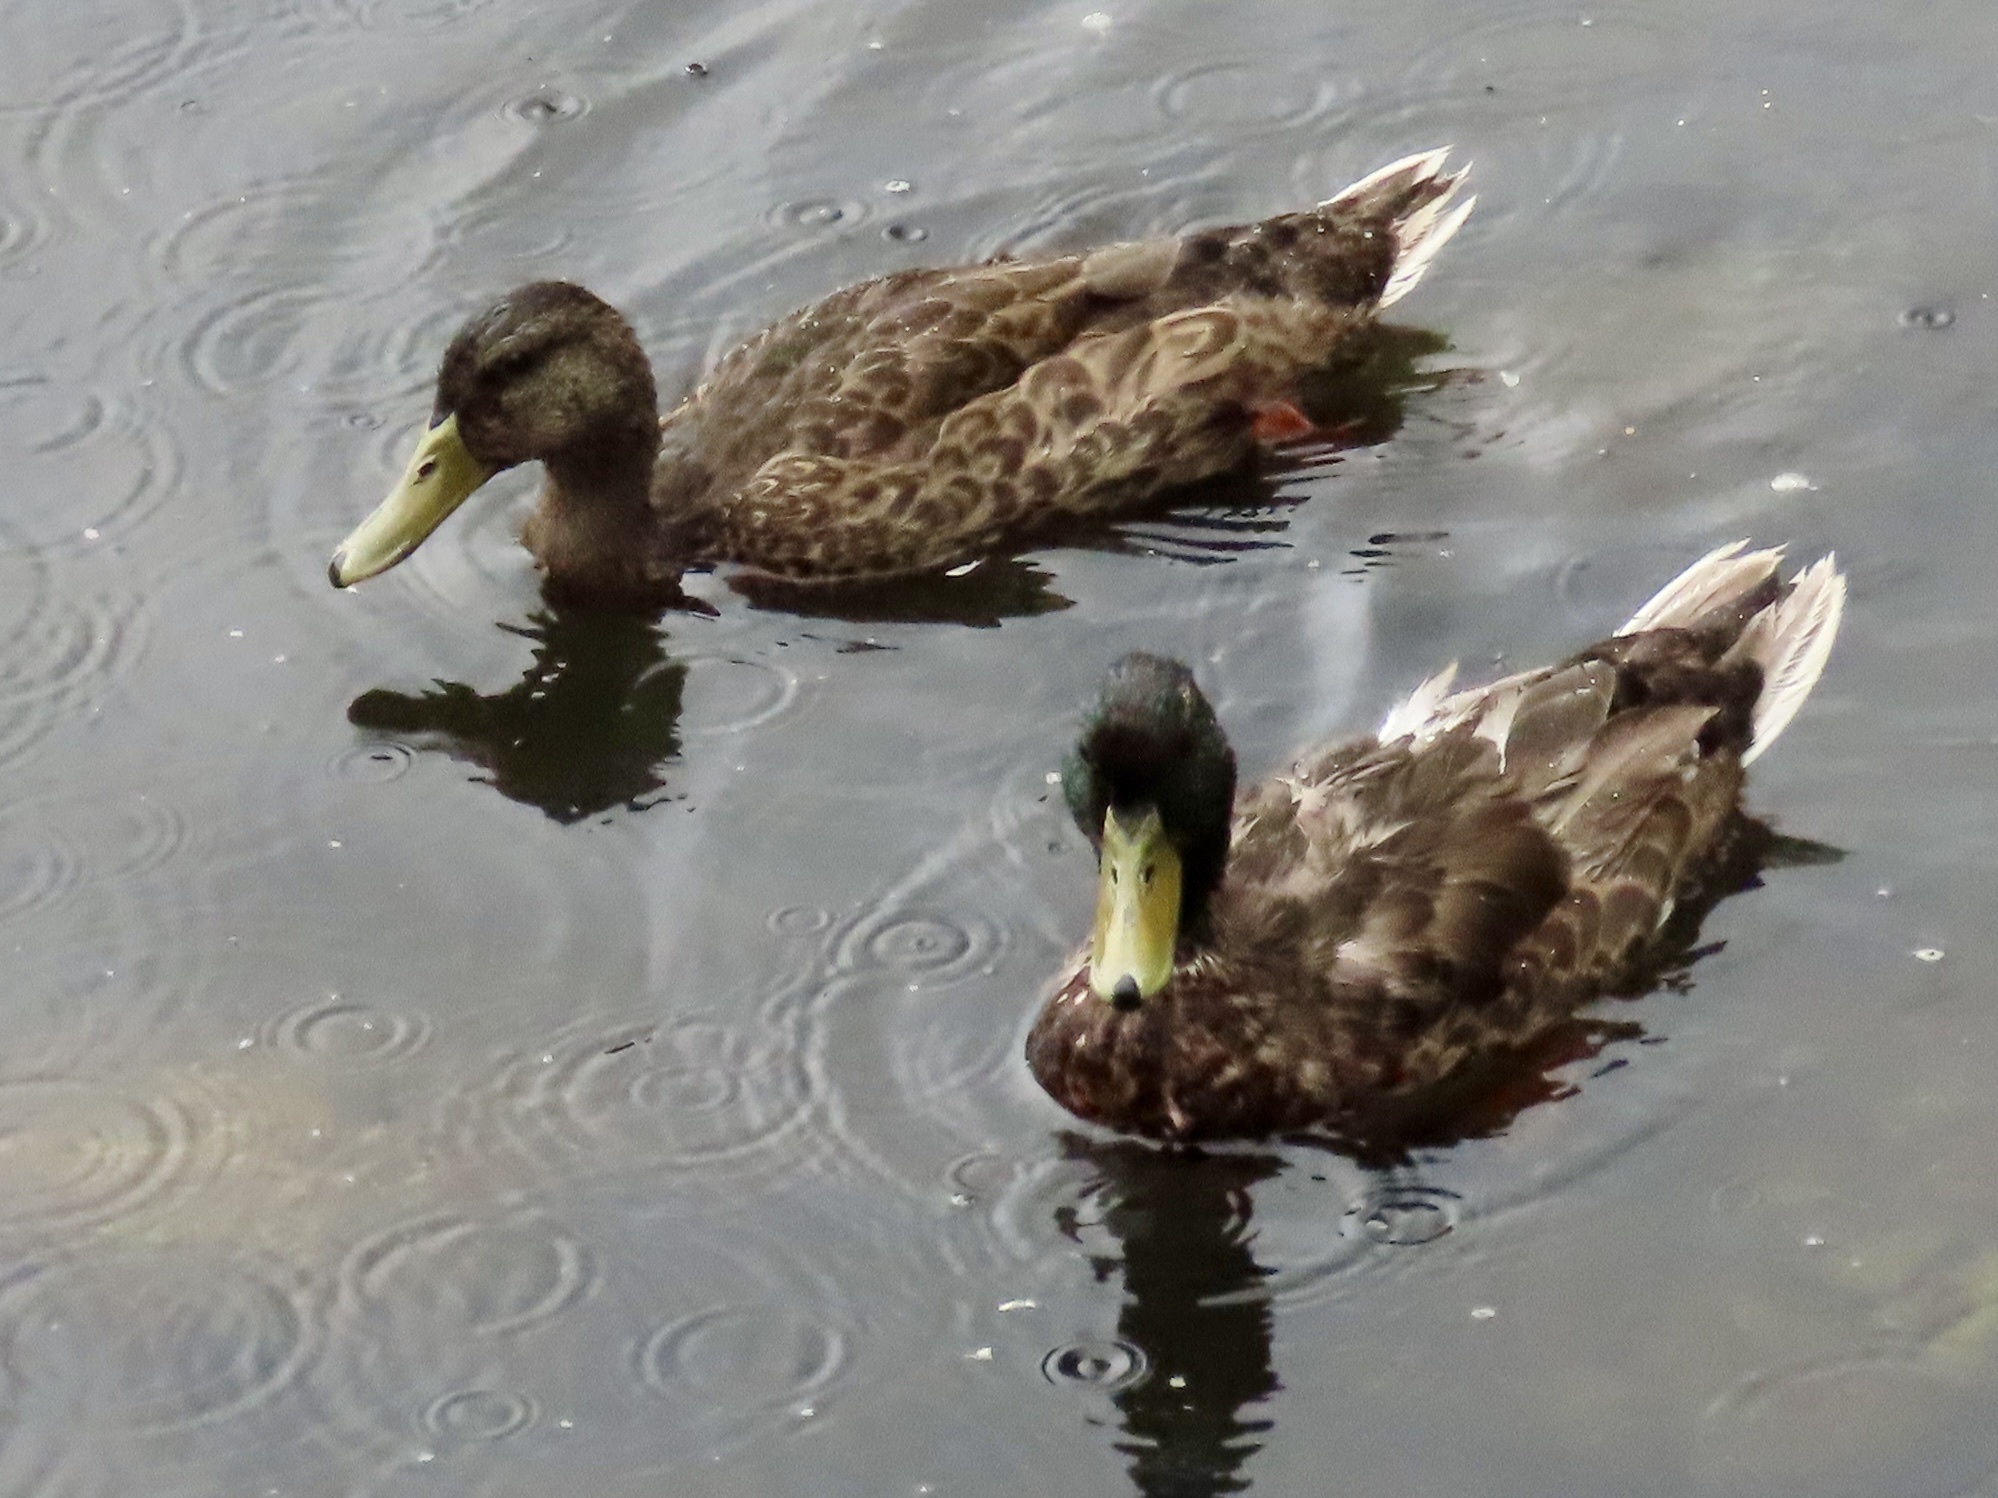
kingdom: Animalia
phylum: Chordata
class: Aves
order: Anseriformes
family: Anatidae
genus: Anas
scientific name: Anas platyrhynchos
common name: Mallard
